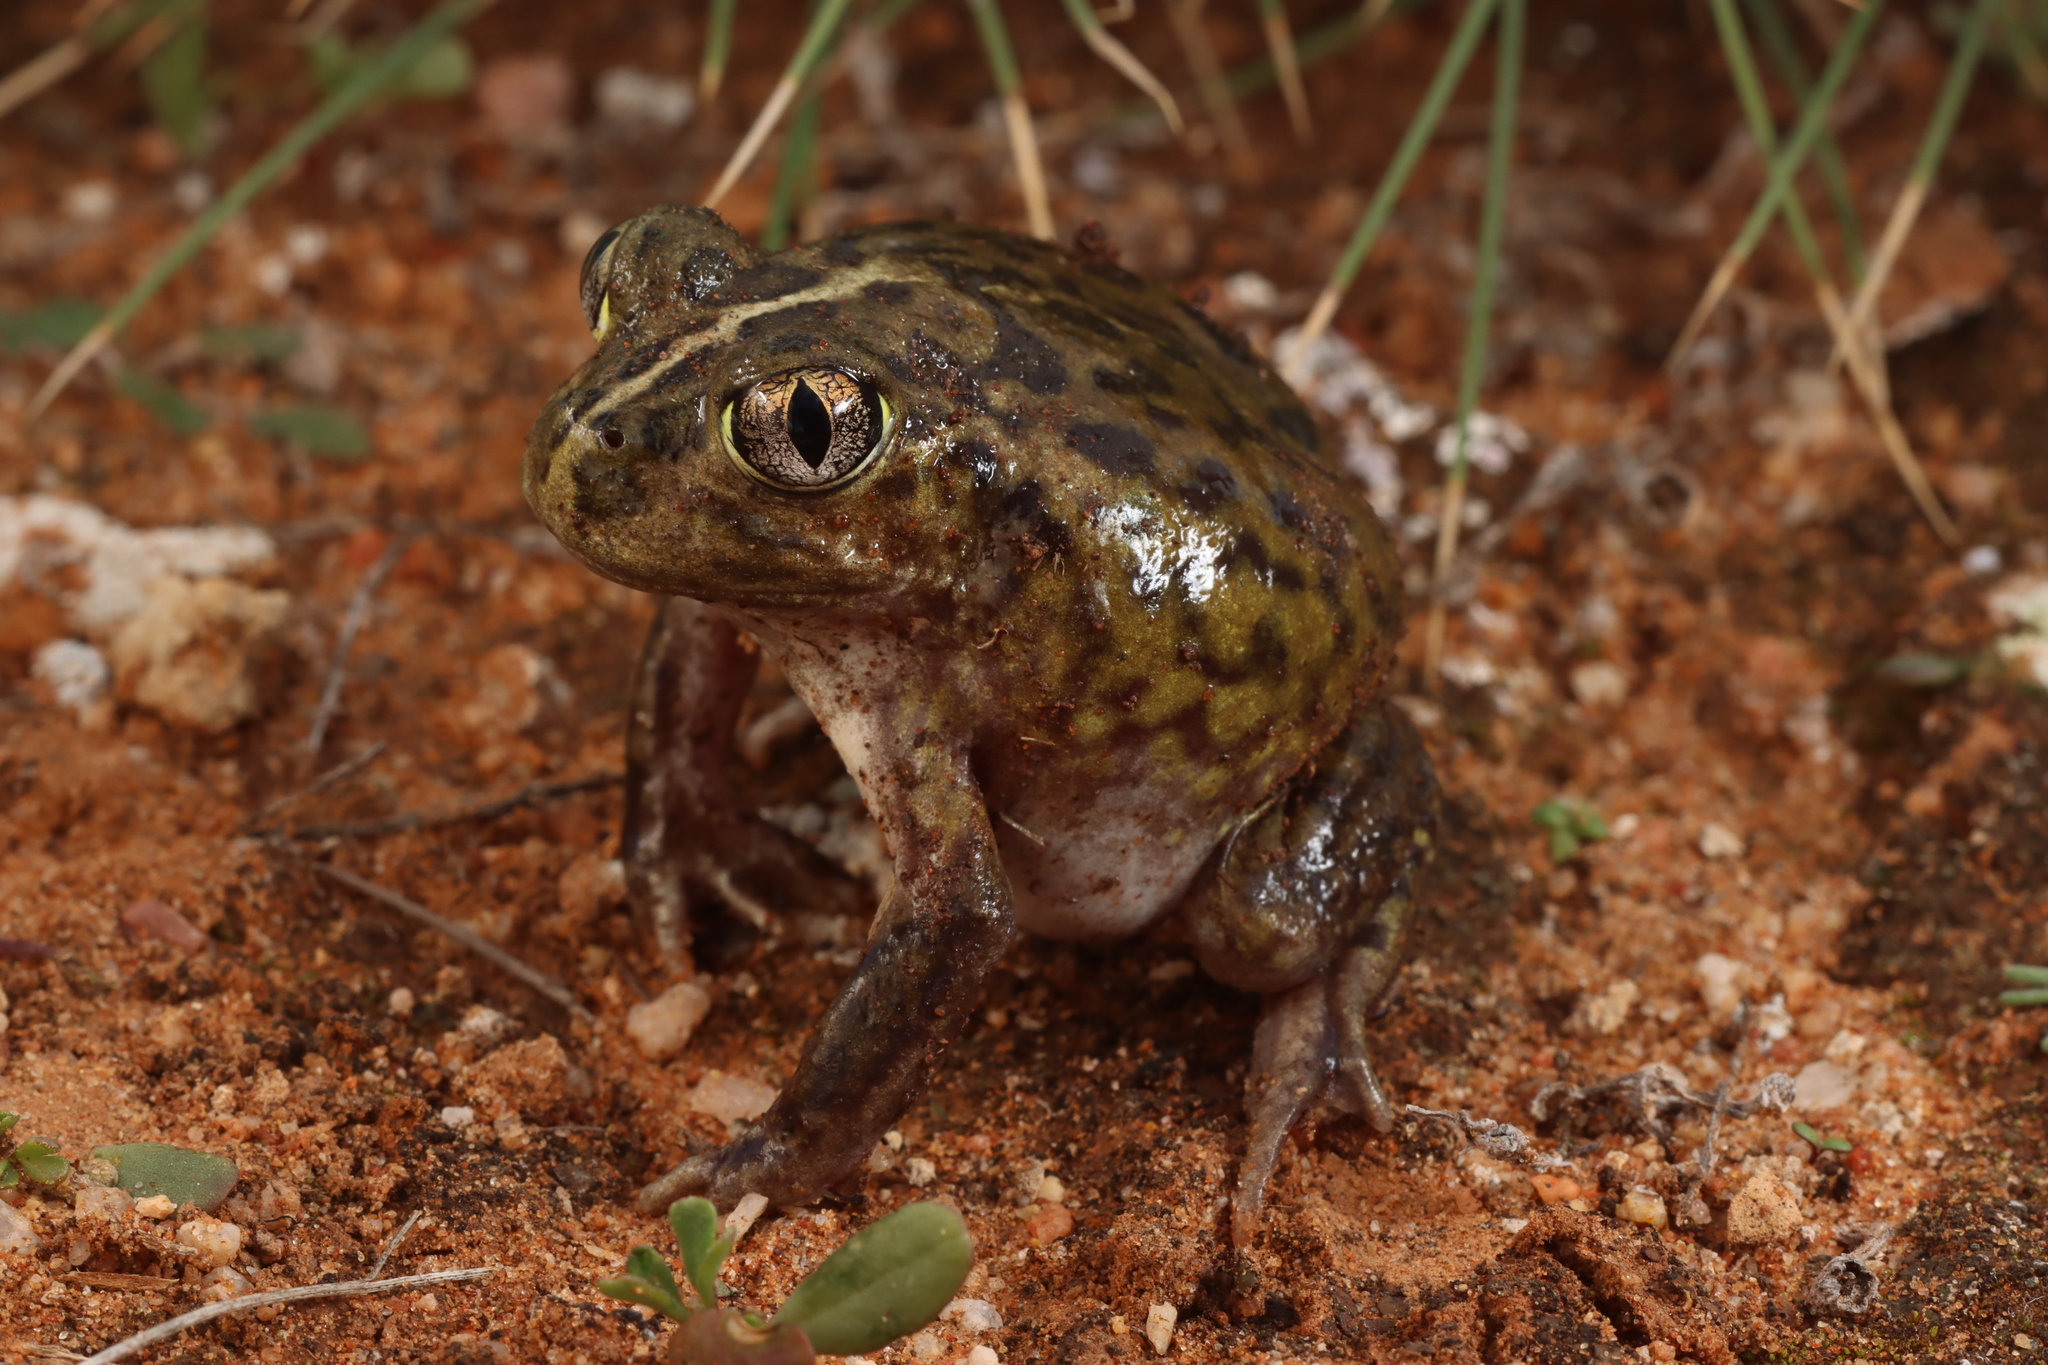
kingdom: Animalia
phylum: Chordata
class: Amphibia
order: Anura
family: Limnodynastidae
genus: Neobatrachus
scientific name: Neobatrachus pictus
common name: Painted burrowing frog
